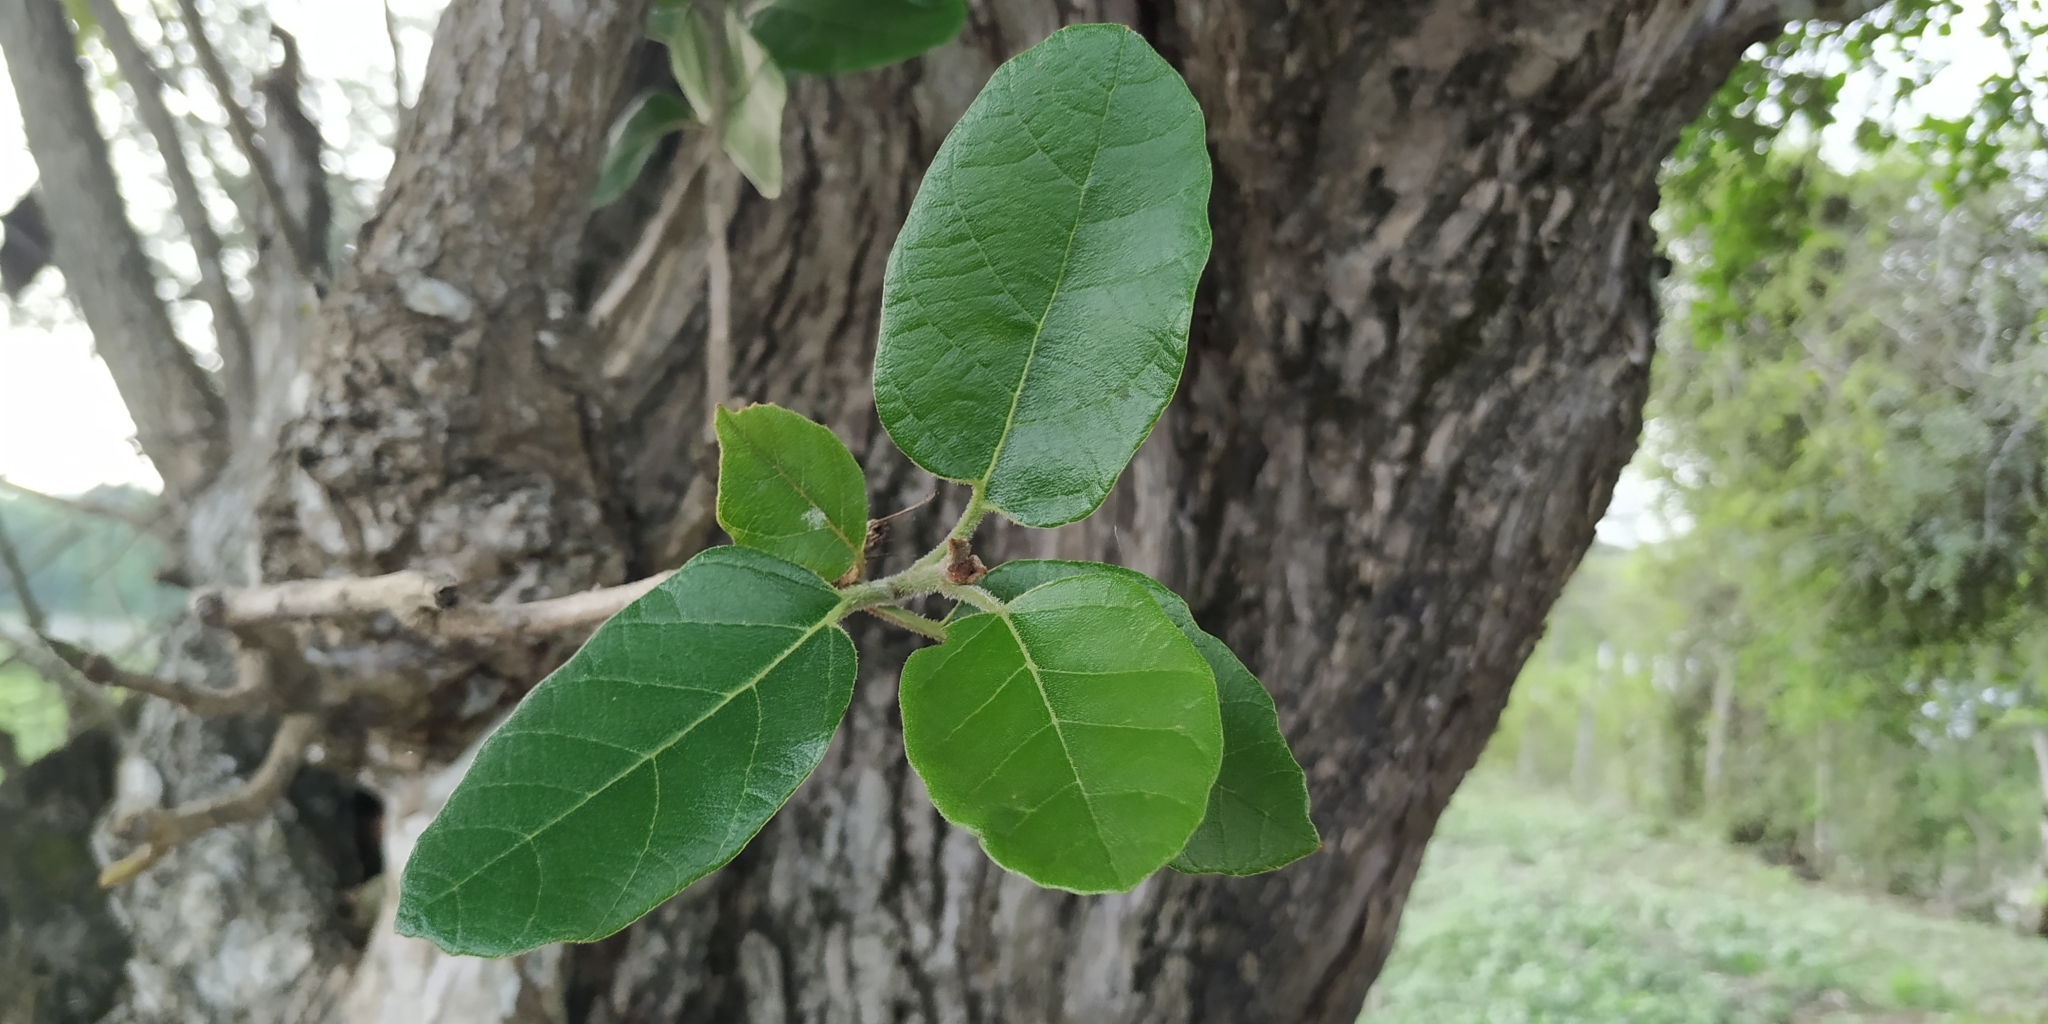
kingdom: Plantae
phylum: Tracheophyta
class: Magnoliopsida
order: Boraginales
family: Cordiaceae
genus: Cordia
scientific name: Cordia dodecandra
